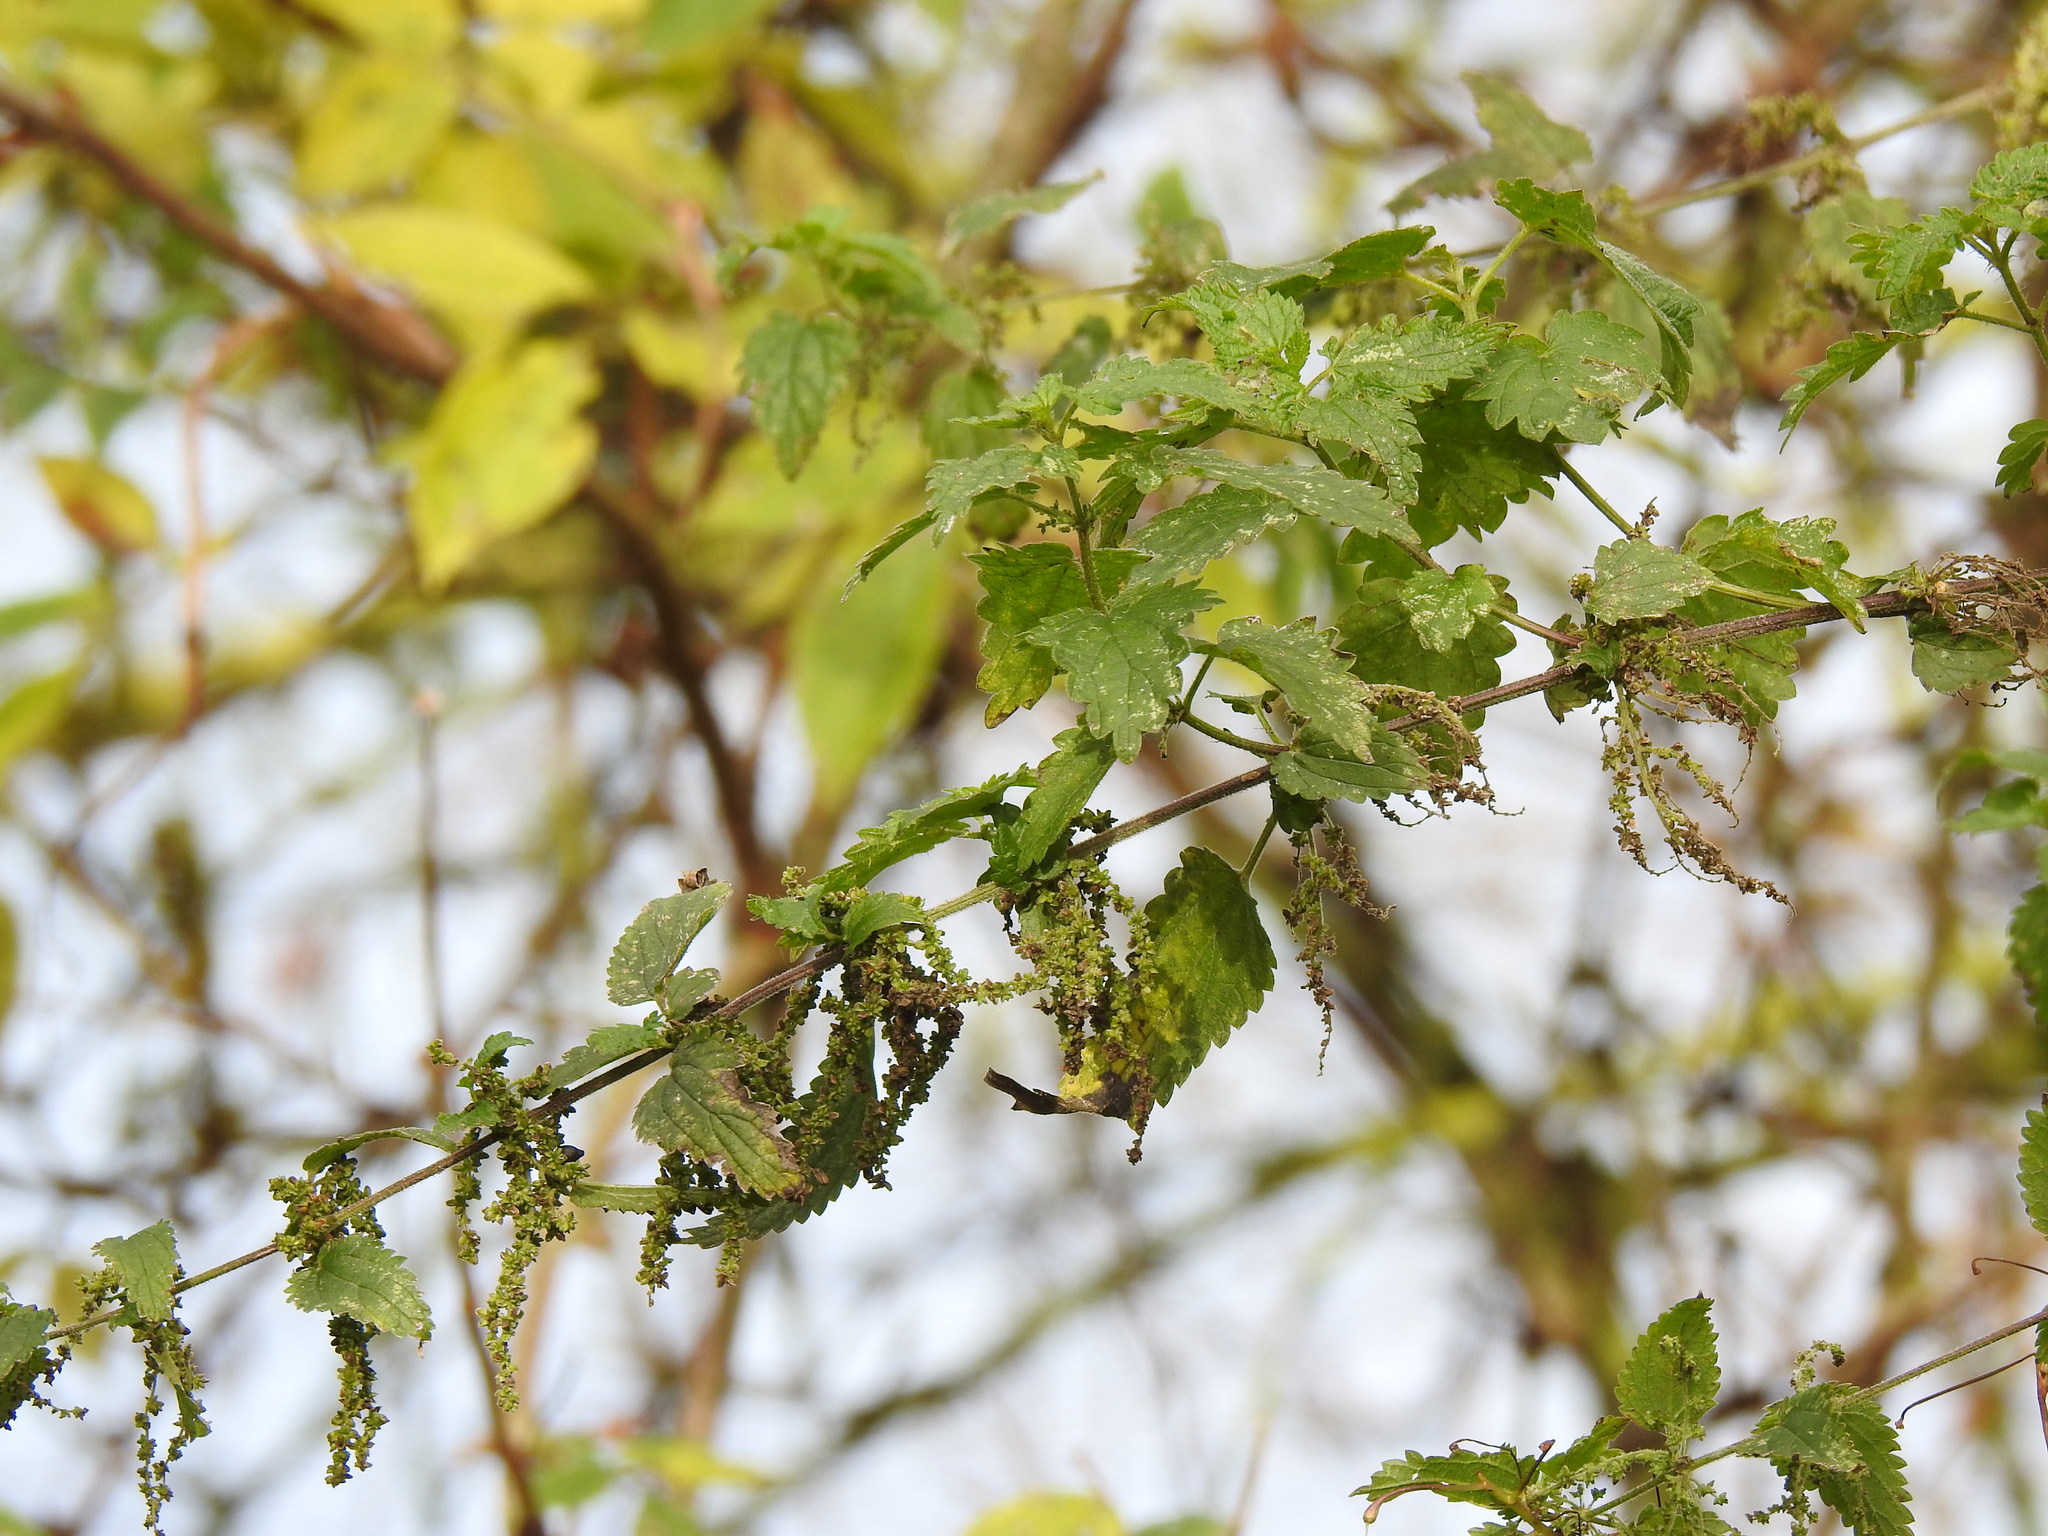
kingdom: Plantae
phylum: Tracheophyta
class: Magnoliopsida
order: Rosales
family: Urticaceae
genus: Urtica
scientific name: Urtica dioica
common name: Common nettle
